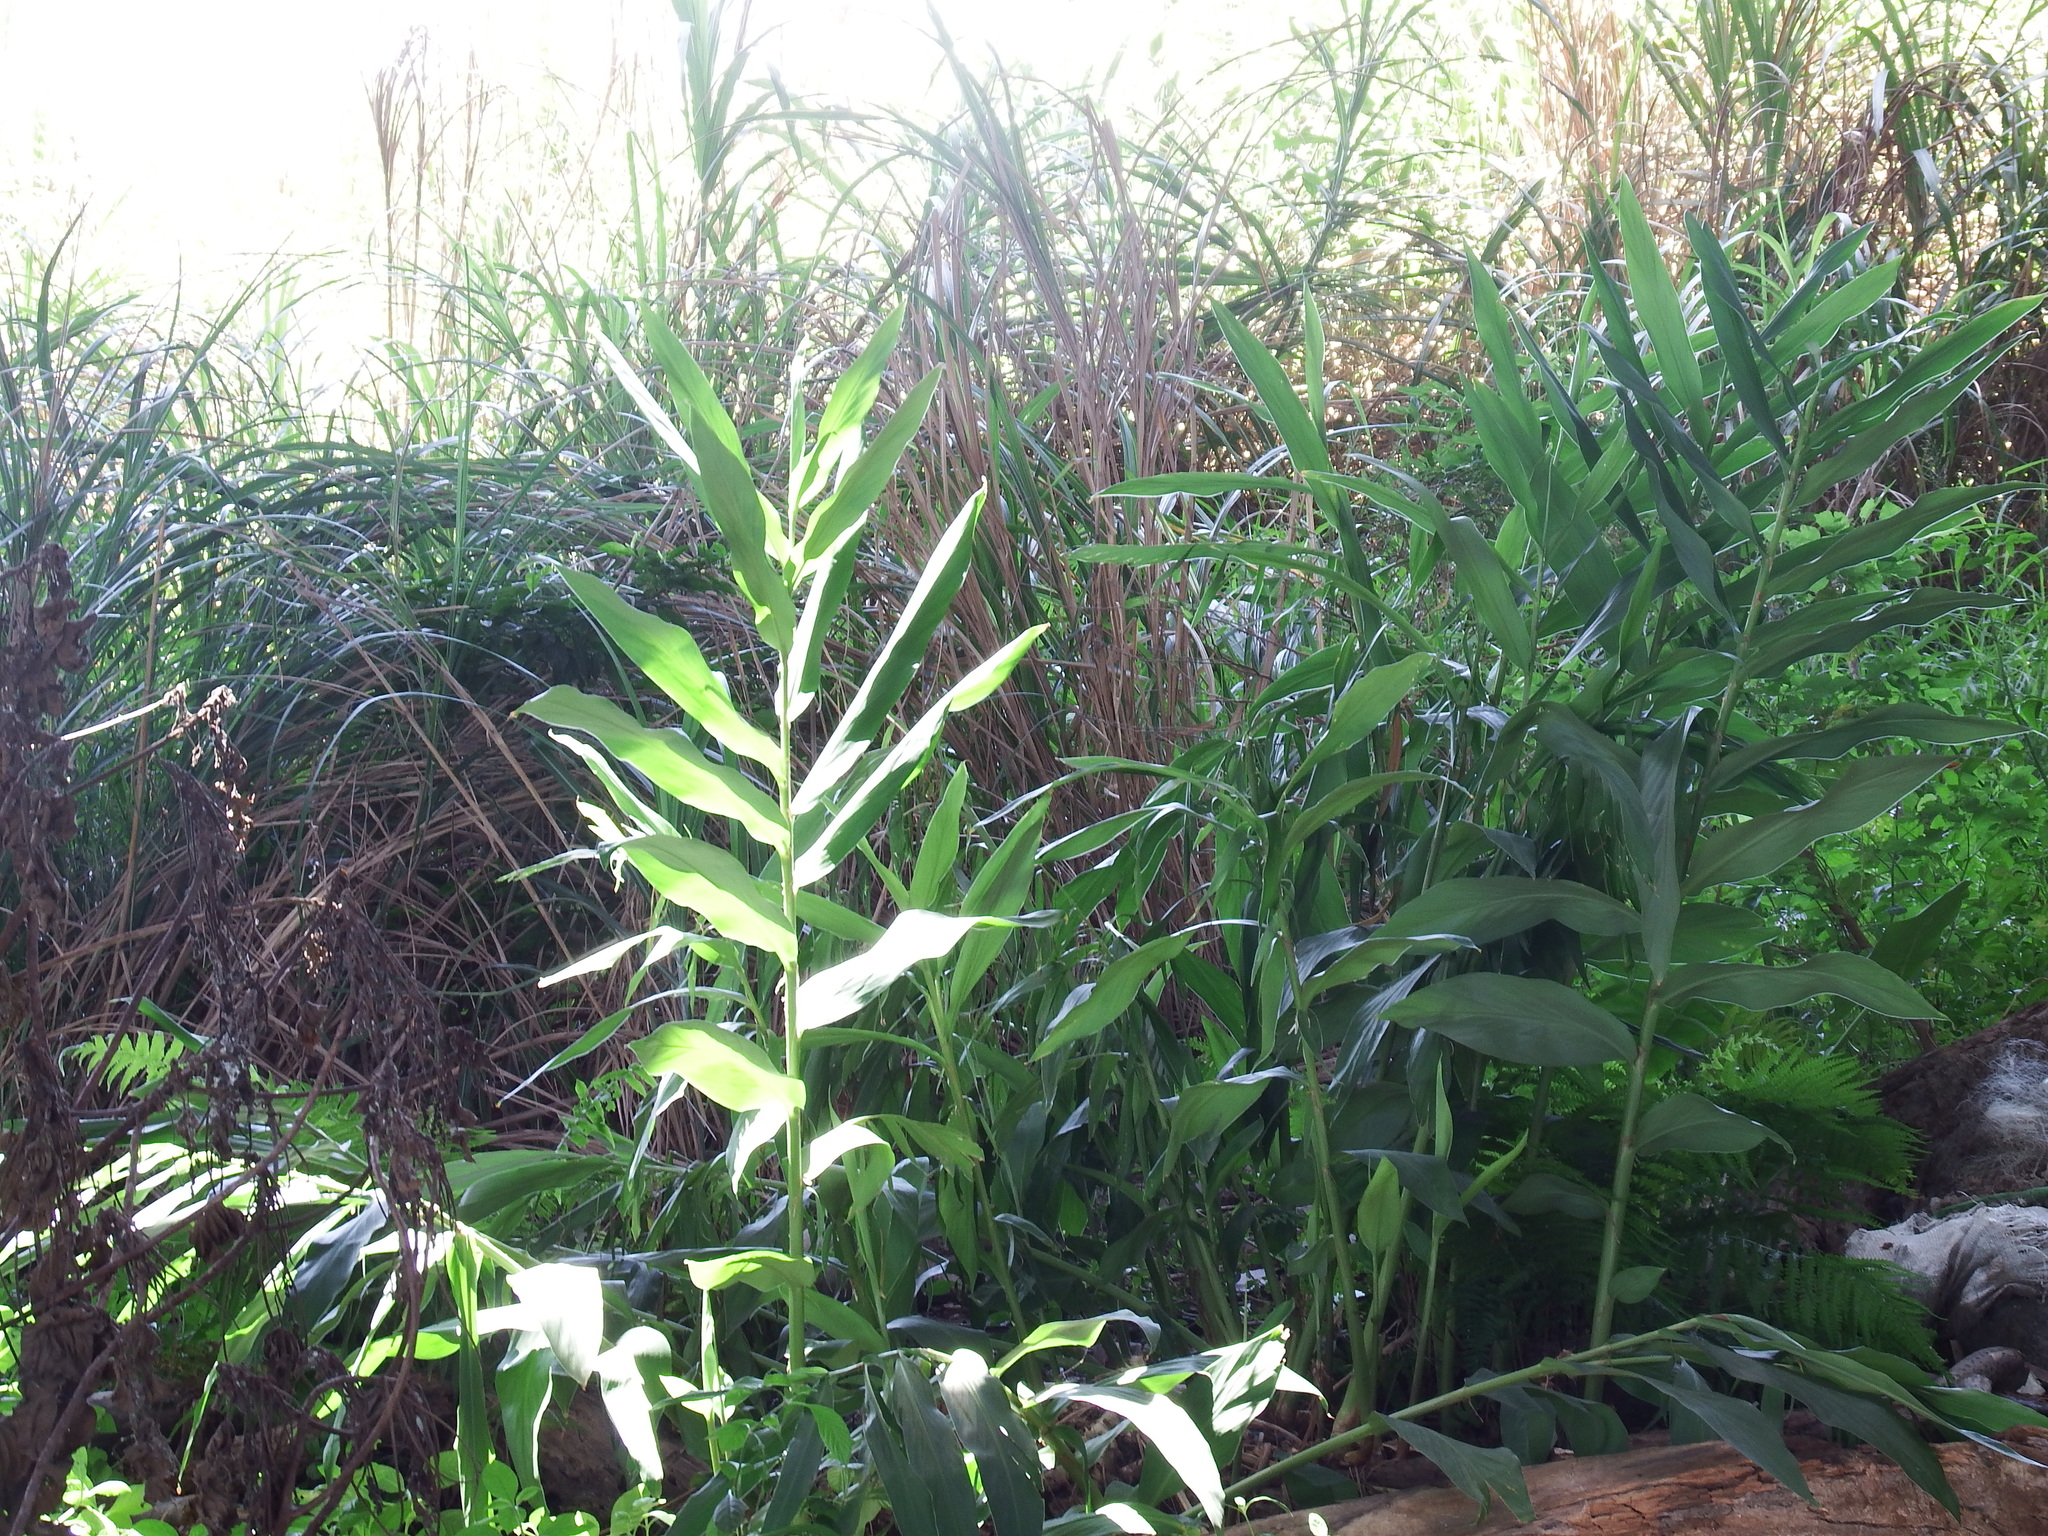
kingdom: Plantae
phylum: Tracheophyta
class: Liliopsida
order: Zingiberales
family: Zingiberaceae
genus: Hedychium
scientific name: Hedychium coronarium
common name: White garland-lily
